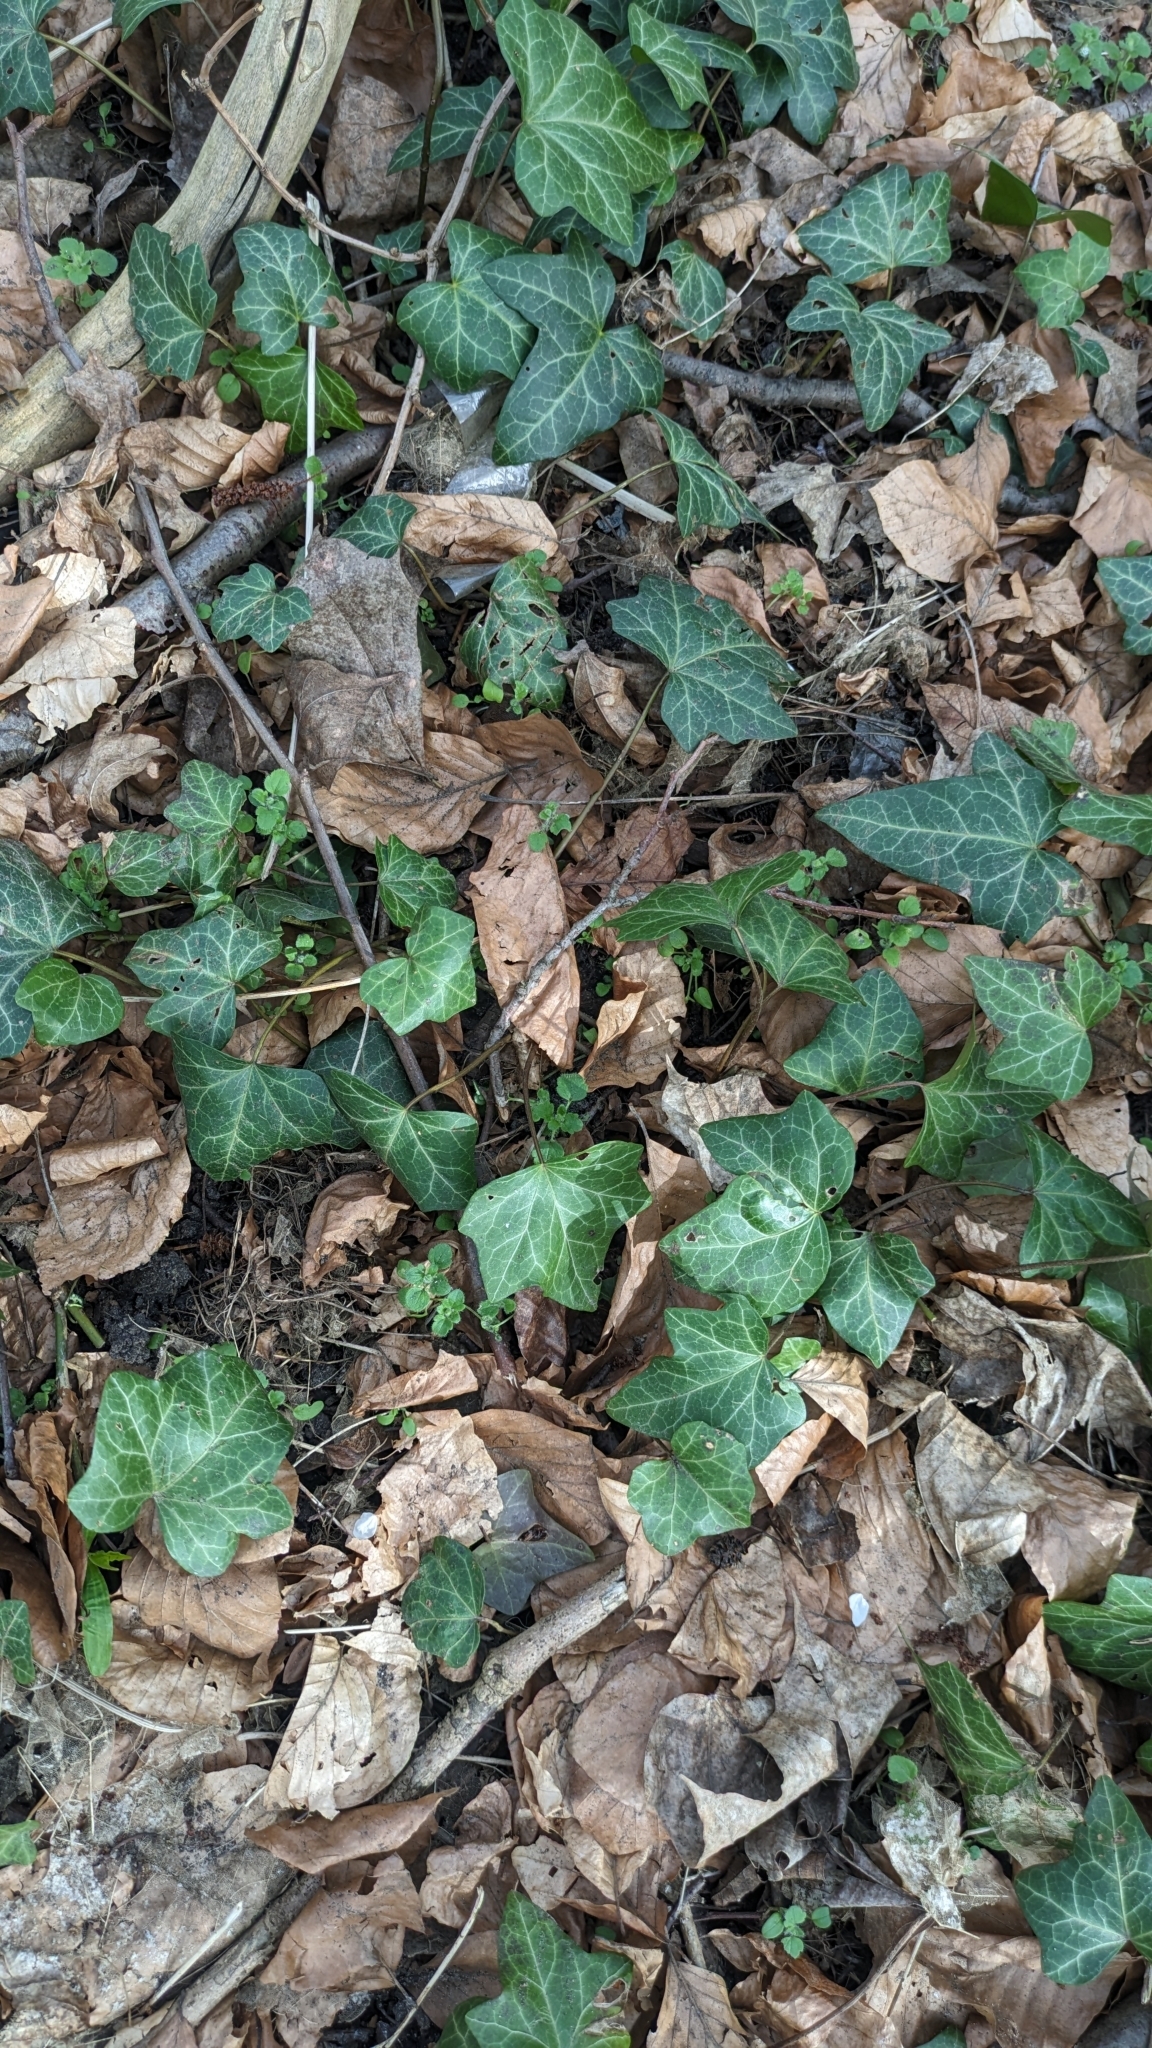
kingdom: Plantae
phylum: Tracheophyta
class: Magnoliopsida
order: Apiales
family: Araliaceae
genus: Hedera
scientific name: Hedera helix
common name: Ivy
